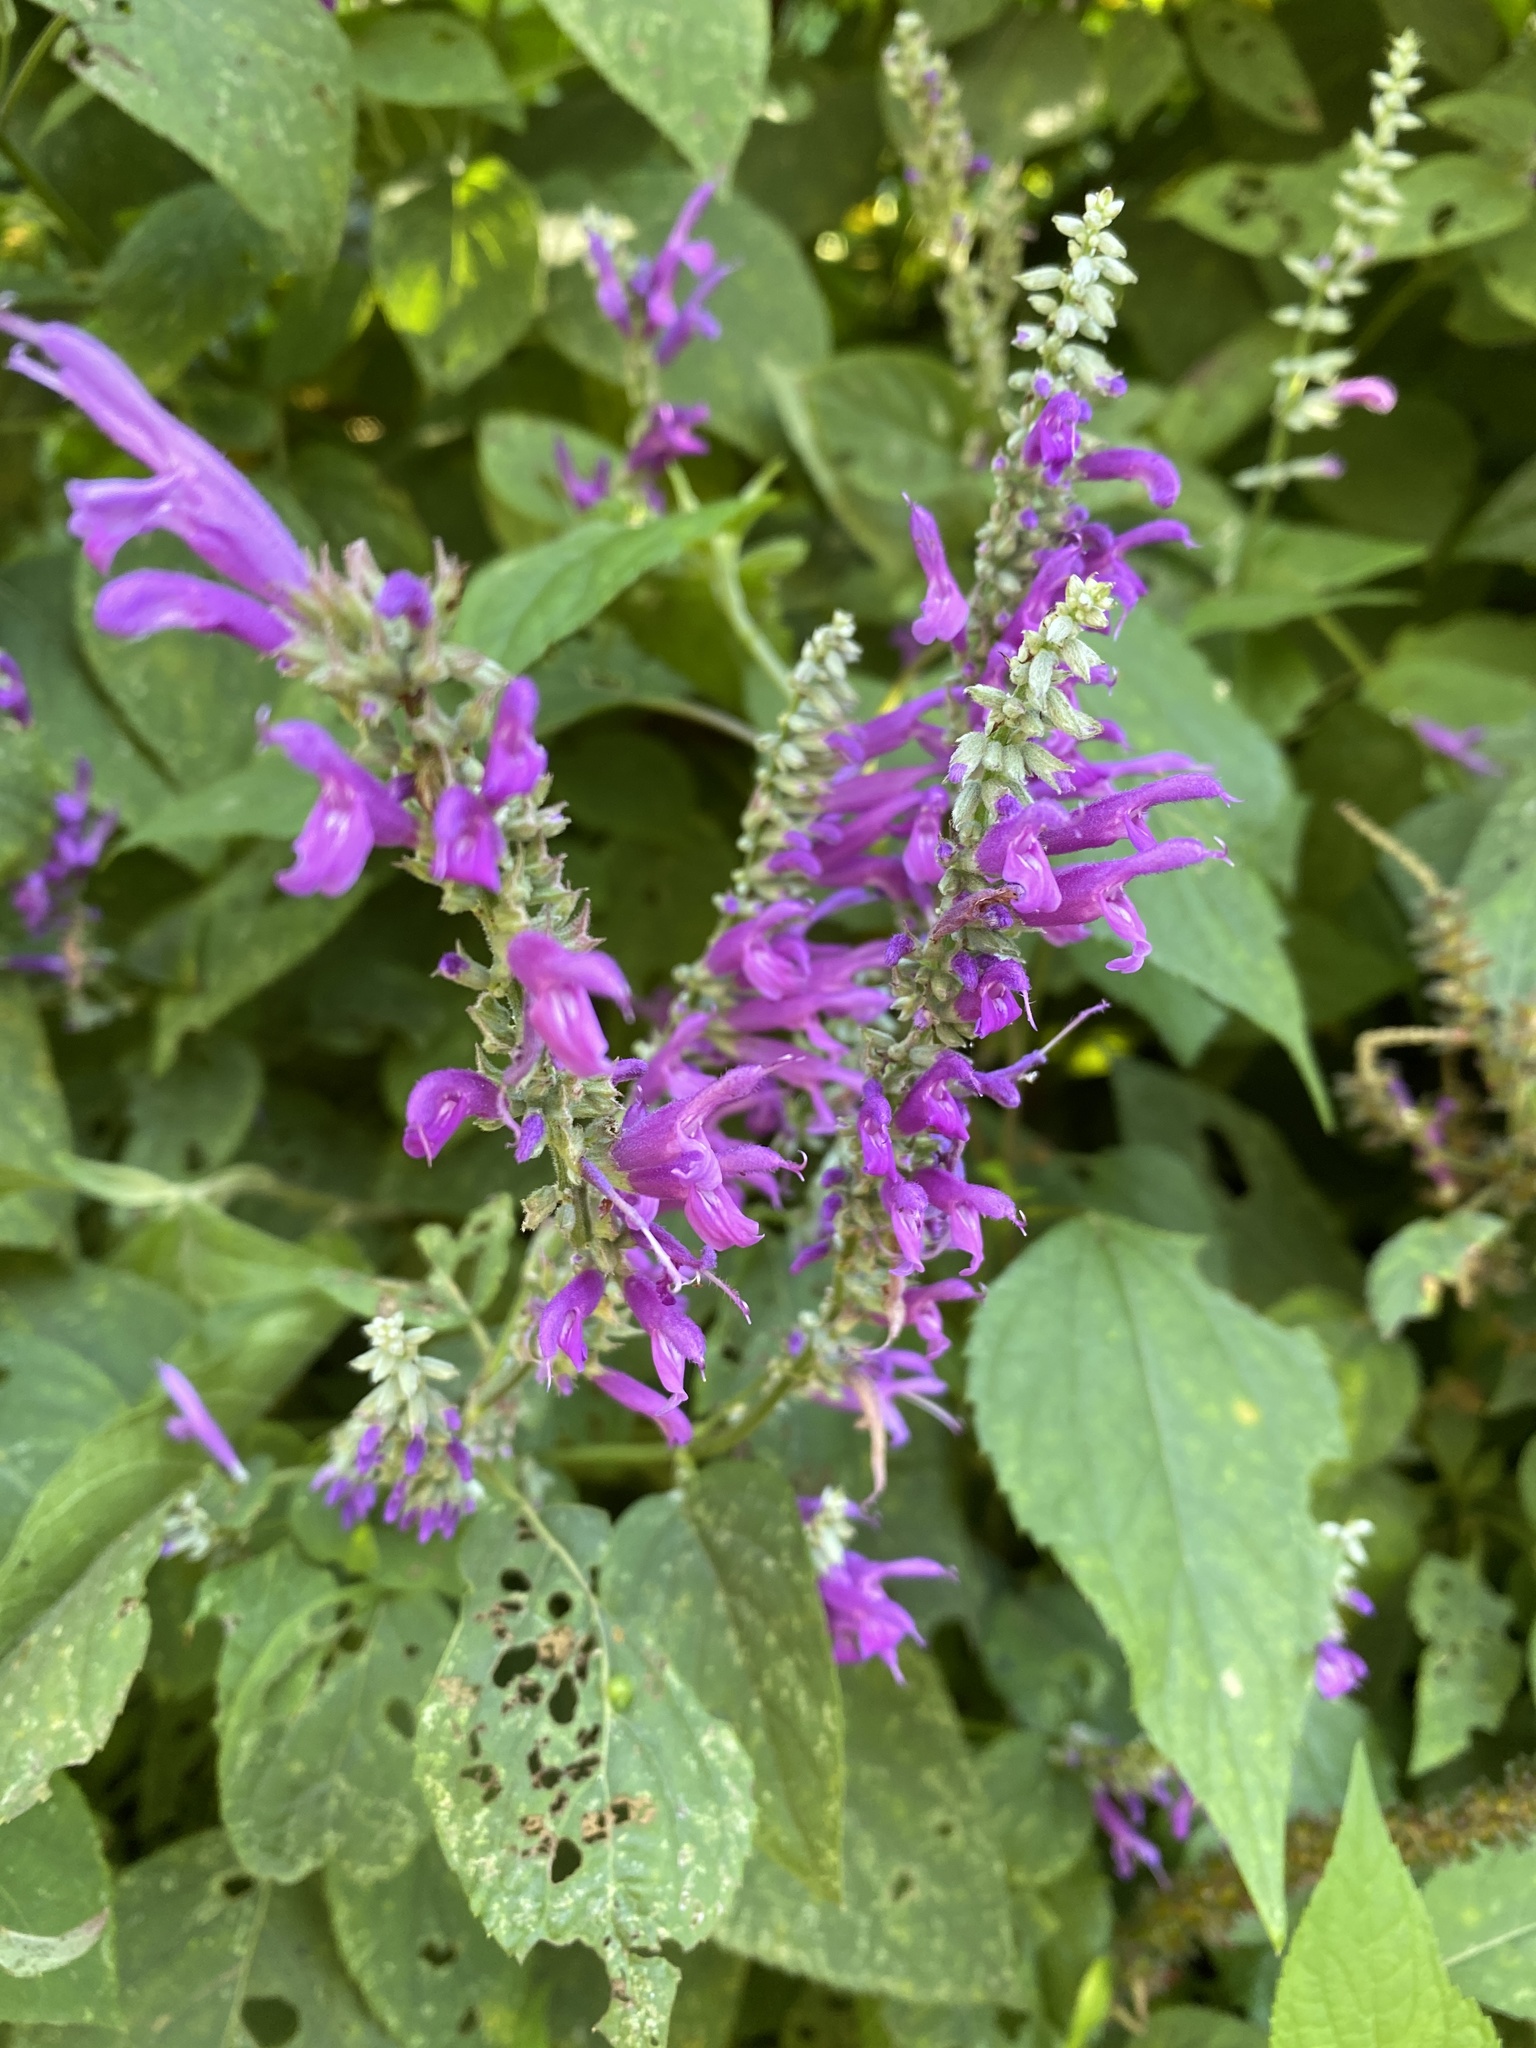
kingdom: Plantae
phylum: Tracheophyta
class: Magnoliopsida
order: Lamiales
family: Lamiaceae
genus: Salvia
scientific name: Salvia purpurea
